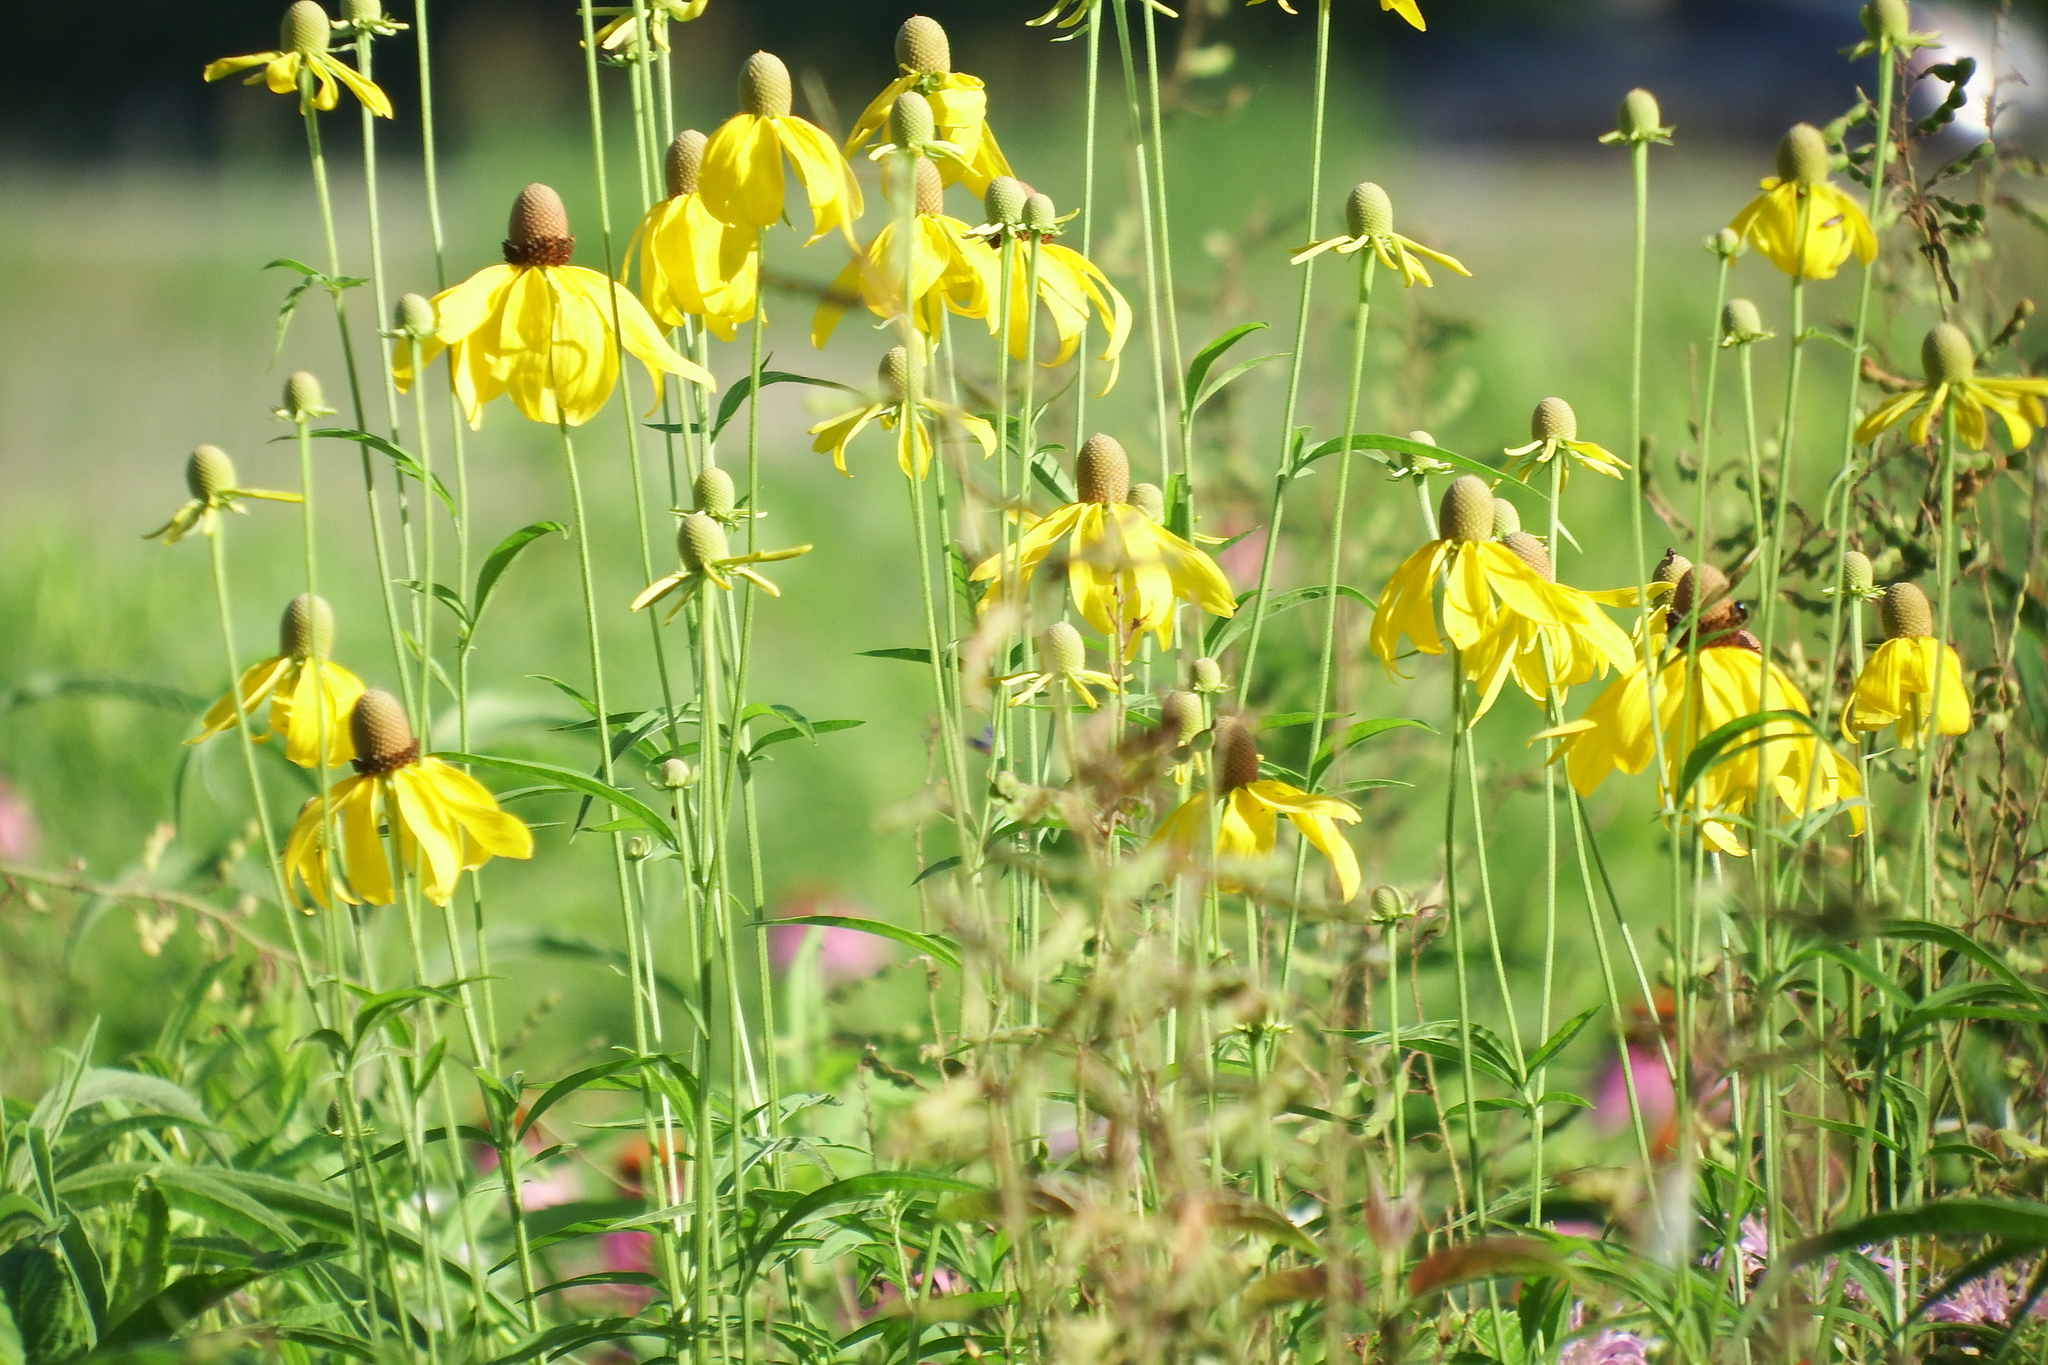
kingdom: Plantae
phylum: Tracheophyta
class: Magnoliopsida
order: Asterales
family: Asteraceae
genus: Ratibida
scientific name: Ratibida pinnata
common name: Drooping prairie-coneflower
